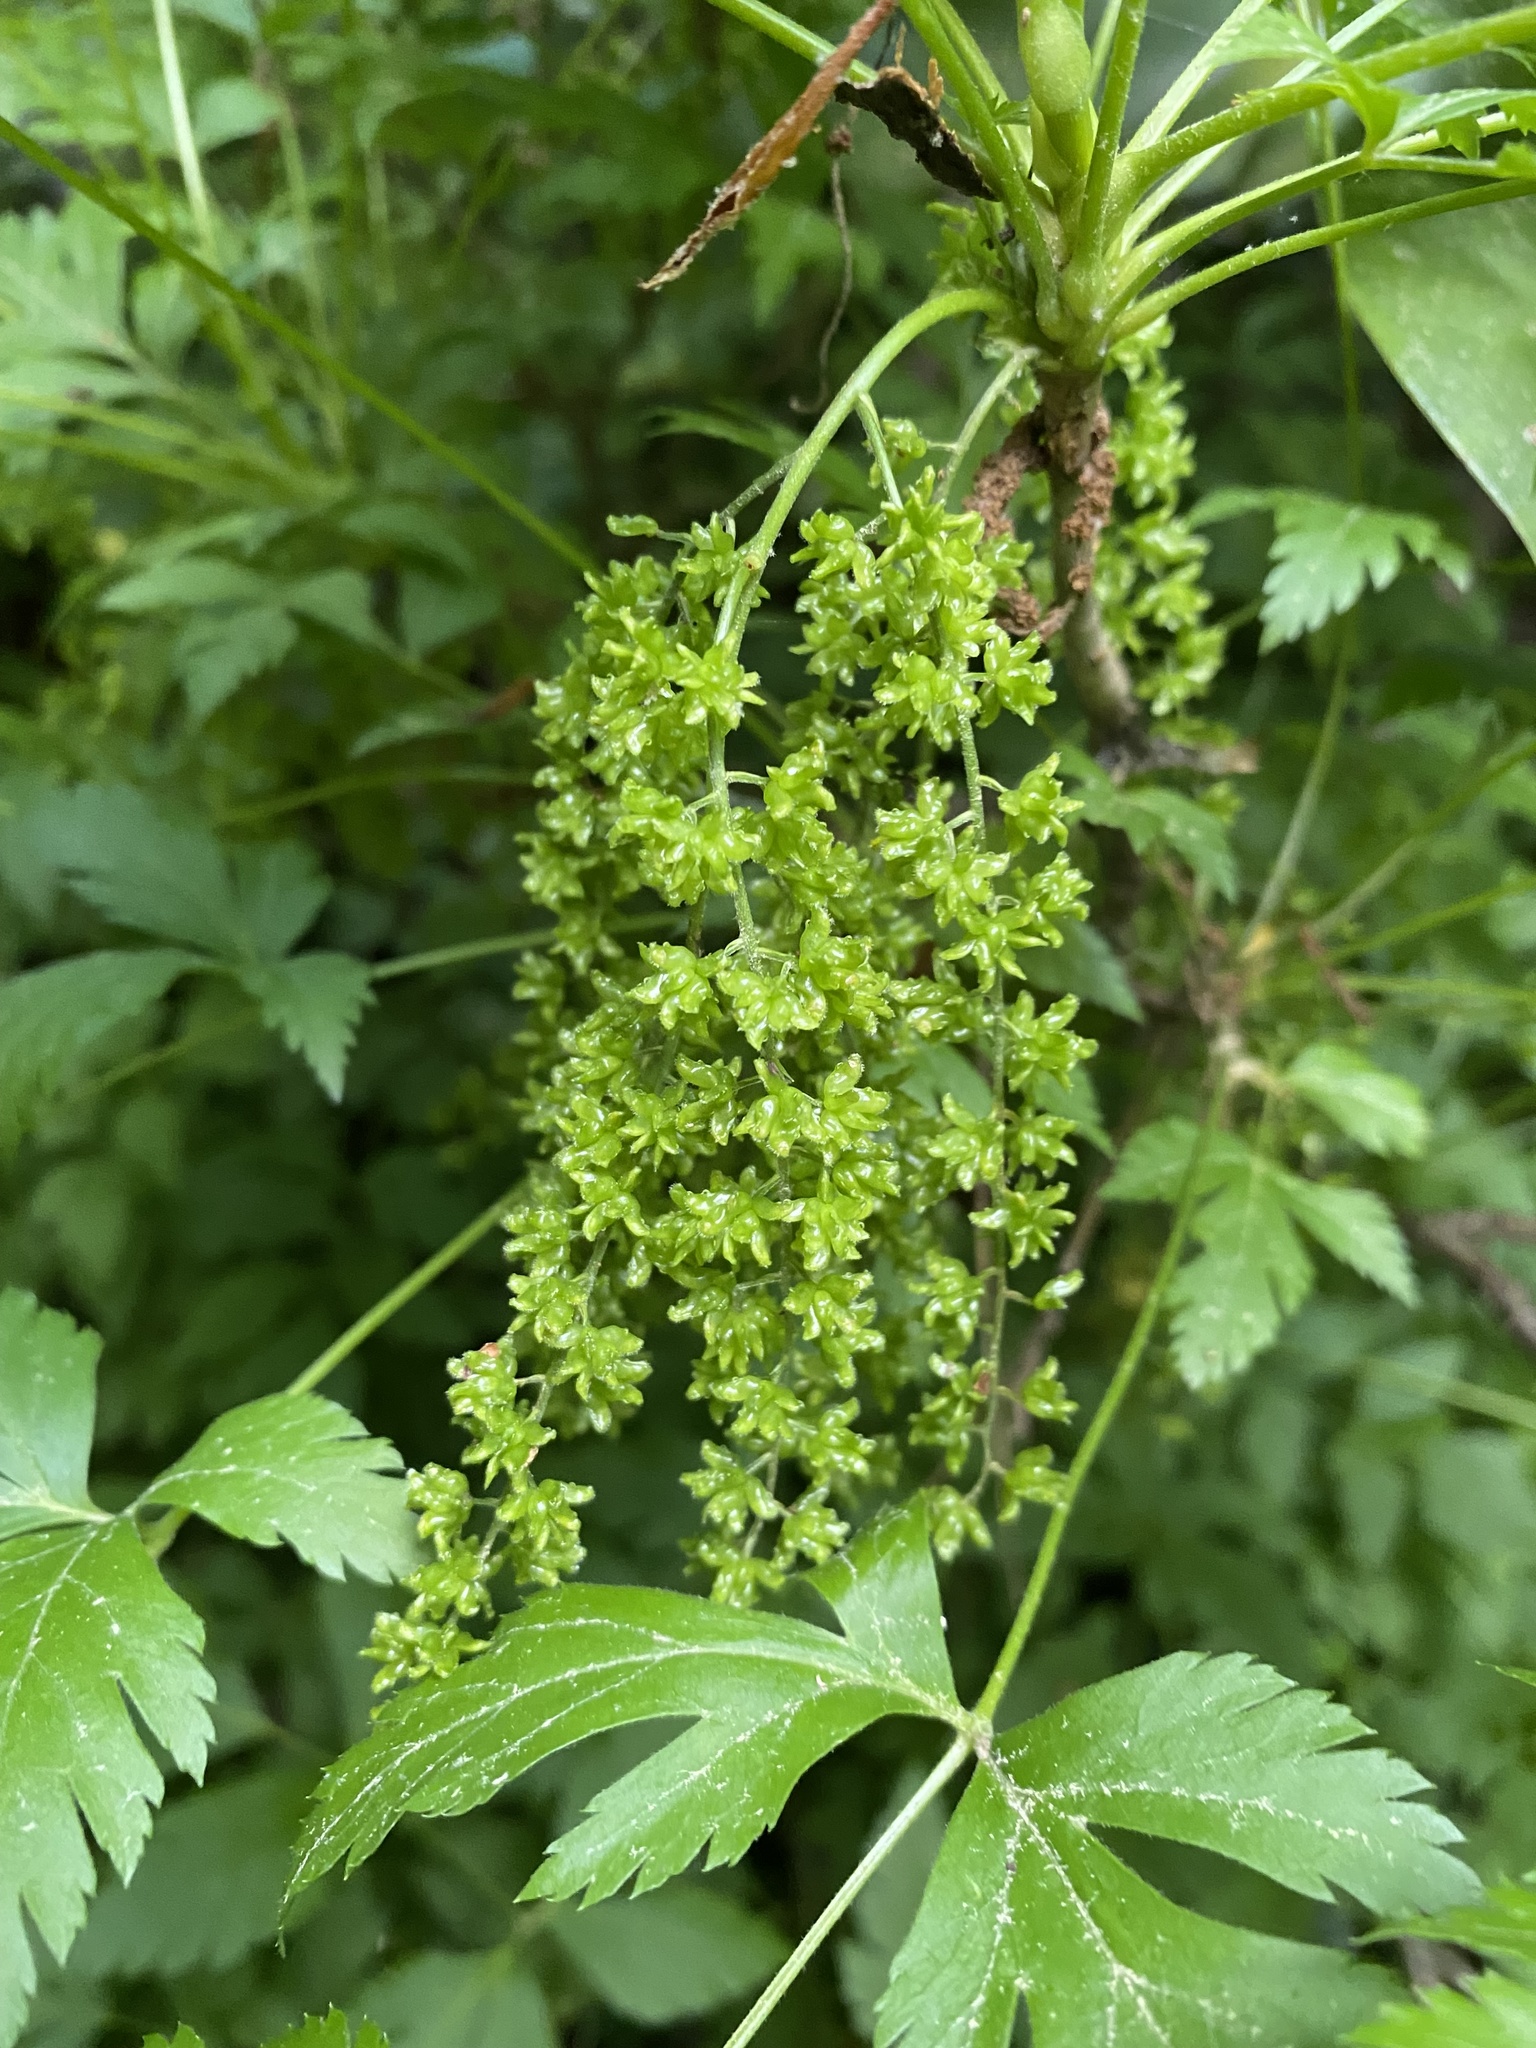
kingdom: Plantae
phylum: Tracheophyta
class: Magnoliopsida
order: Ranunculales
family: Ranunculaceae
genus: Xanthorhiza
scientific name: Xanthorhiza simplicissima
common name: Yellowroot
